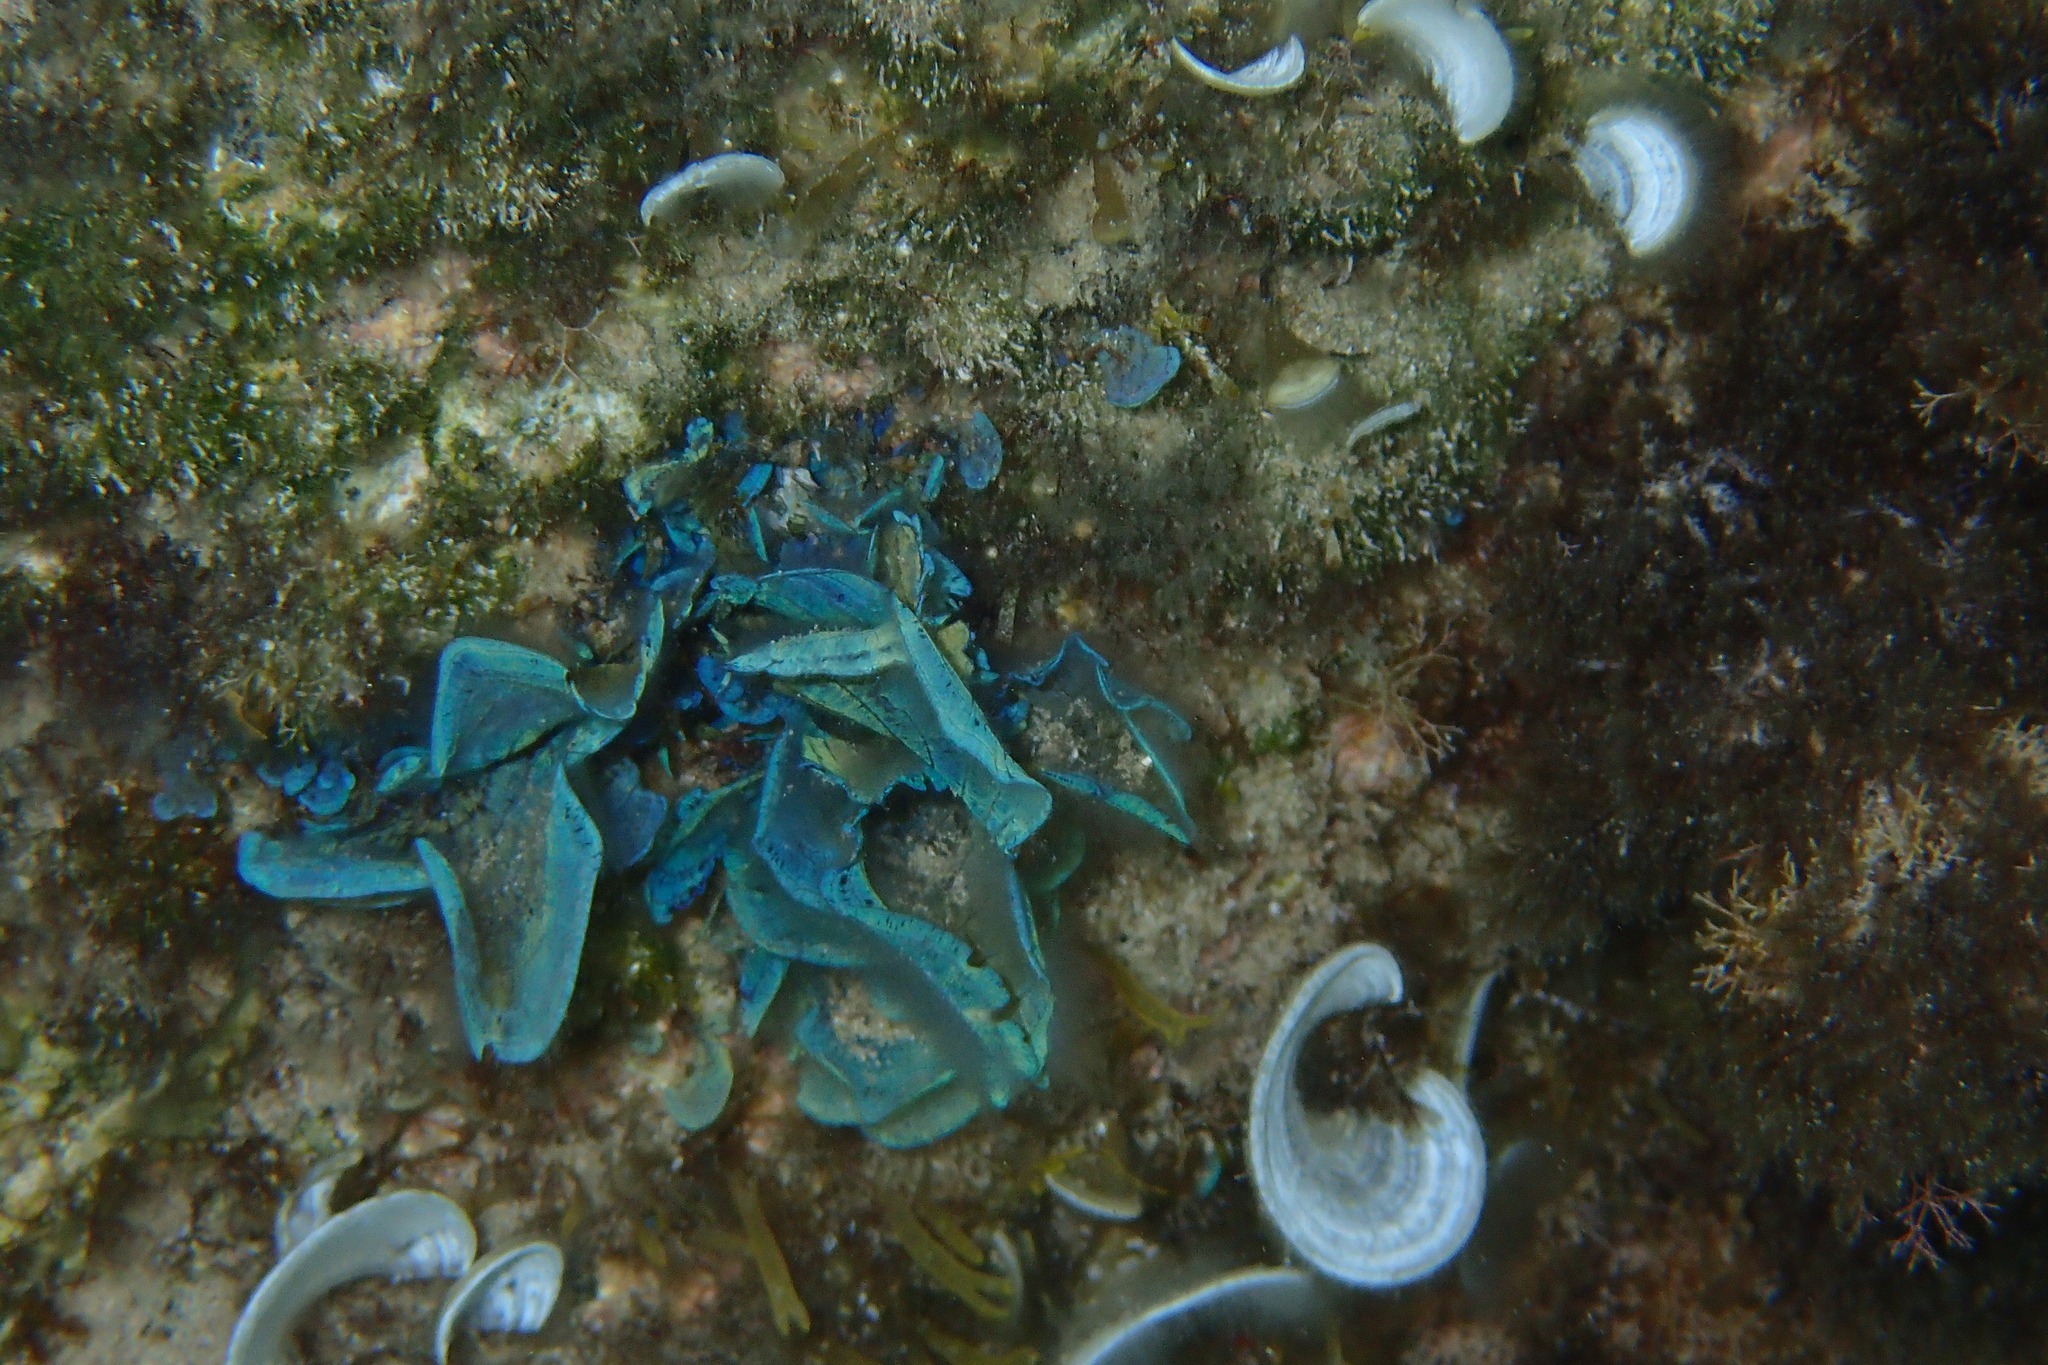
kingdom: Chromista
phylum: Ochrophyta
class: Phaeophyceae
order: Dictyotales
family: Dictyotaceae
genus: Zonaria
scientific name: Zonaria tournefortii
